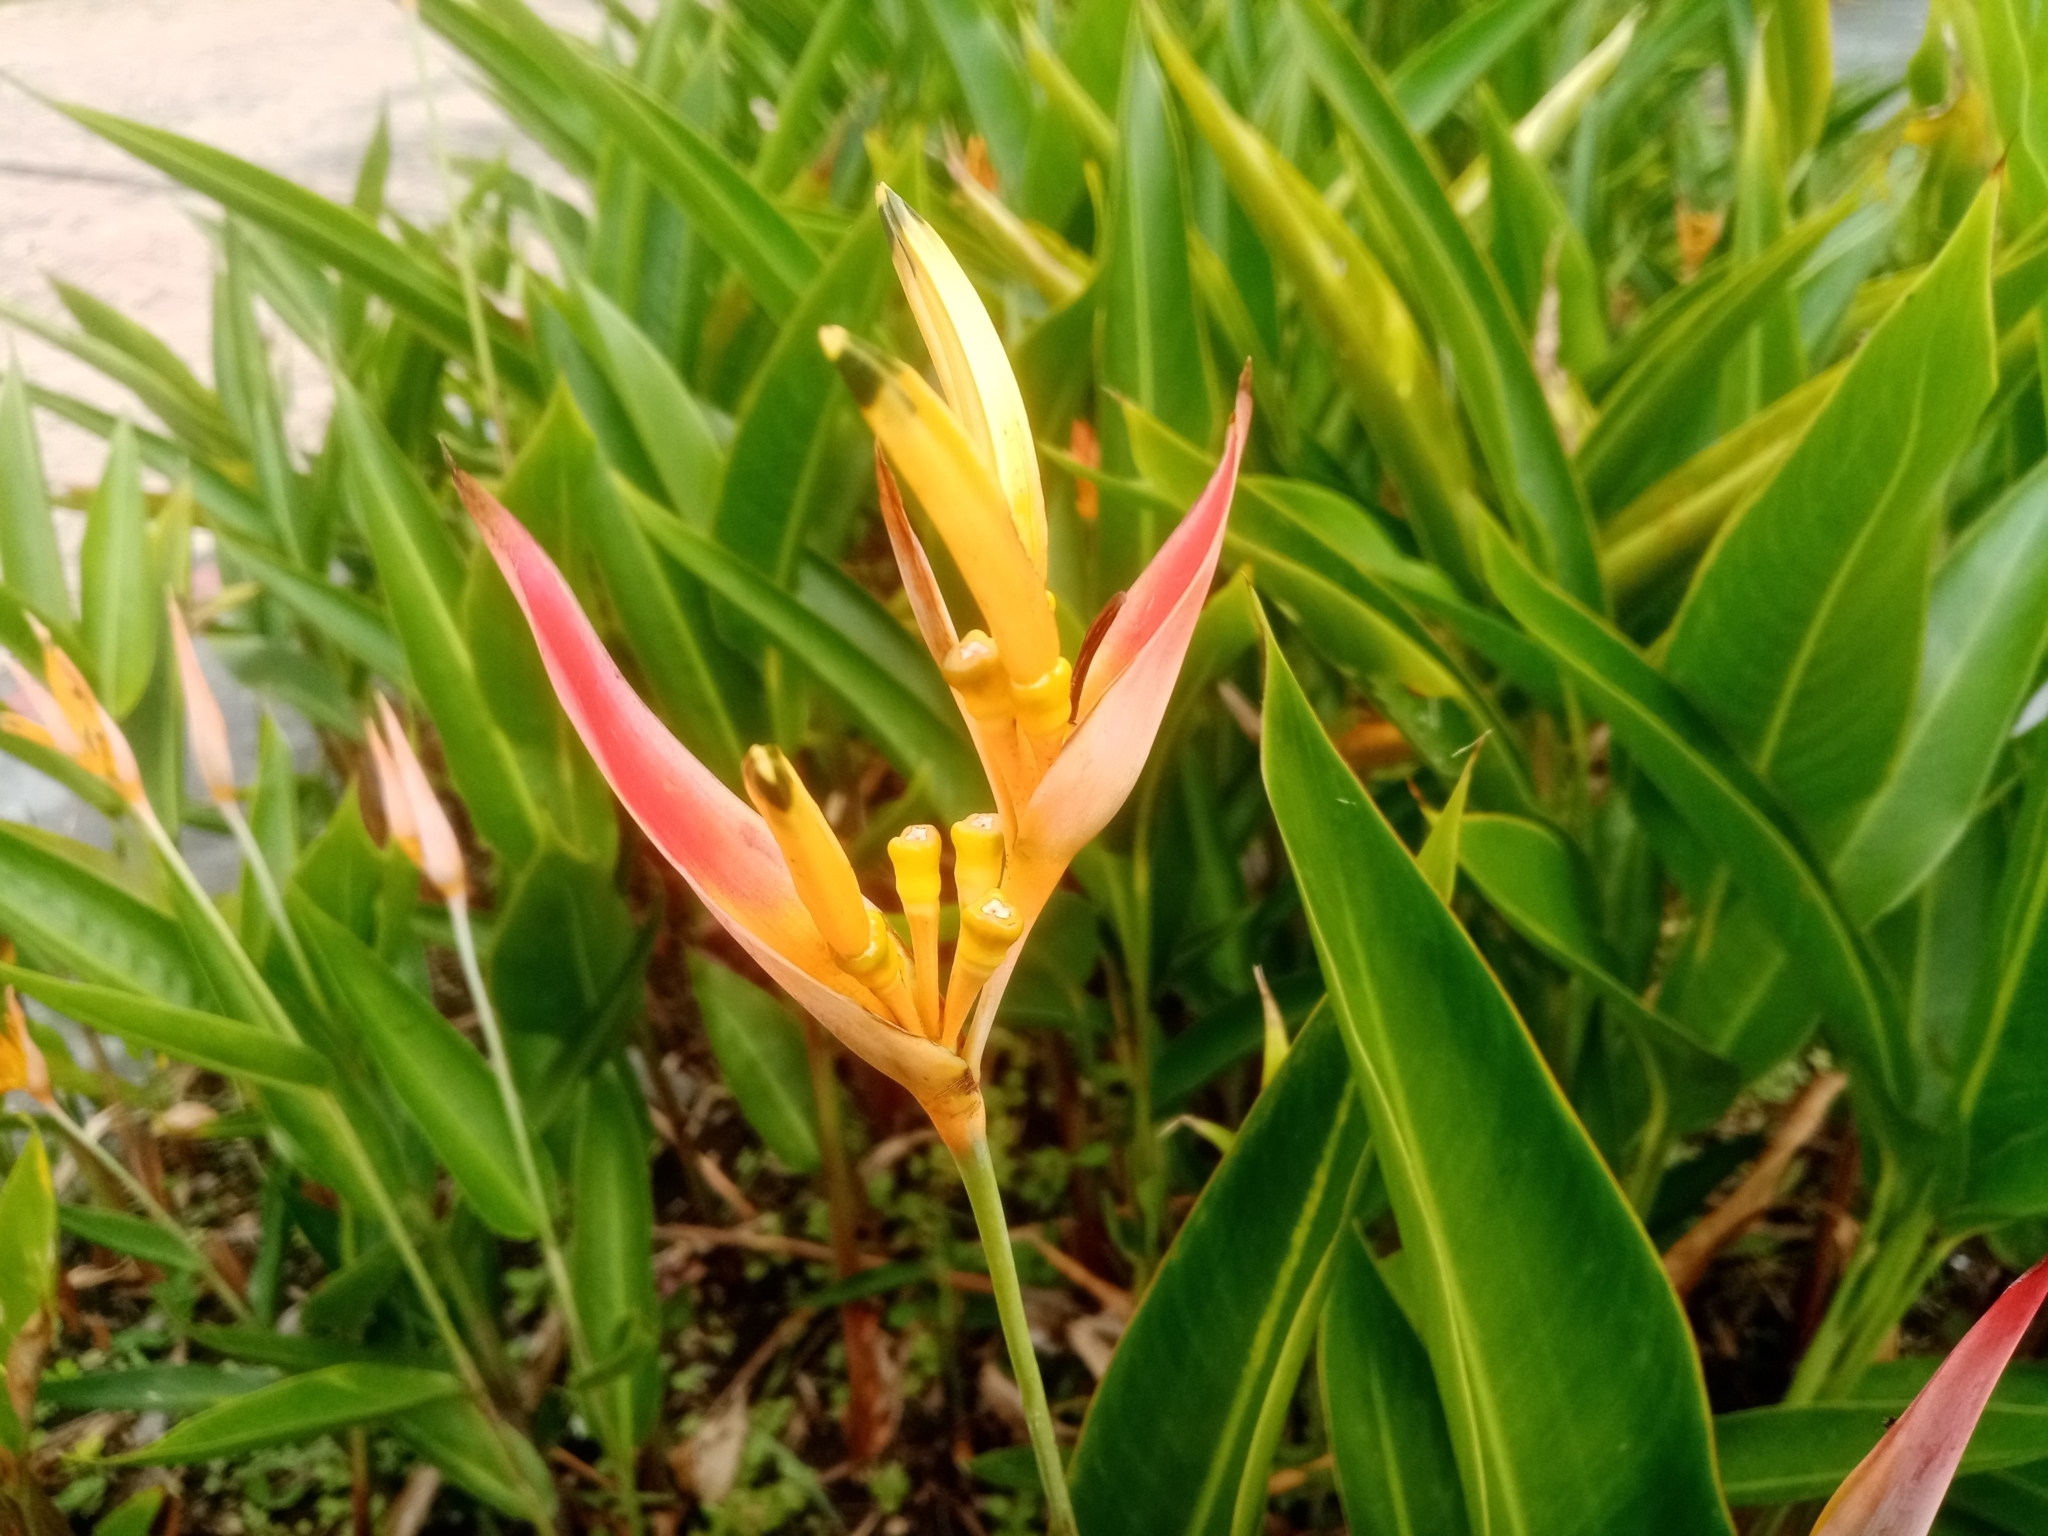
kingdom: Plantae
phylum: Tracheophyta
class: Liliopsida
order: Zingiberales
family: Heliconiaceae
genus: Heliconia
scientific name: Heliconia psittacorum
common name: Parrot's-flower
